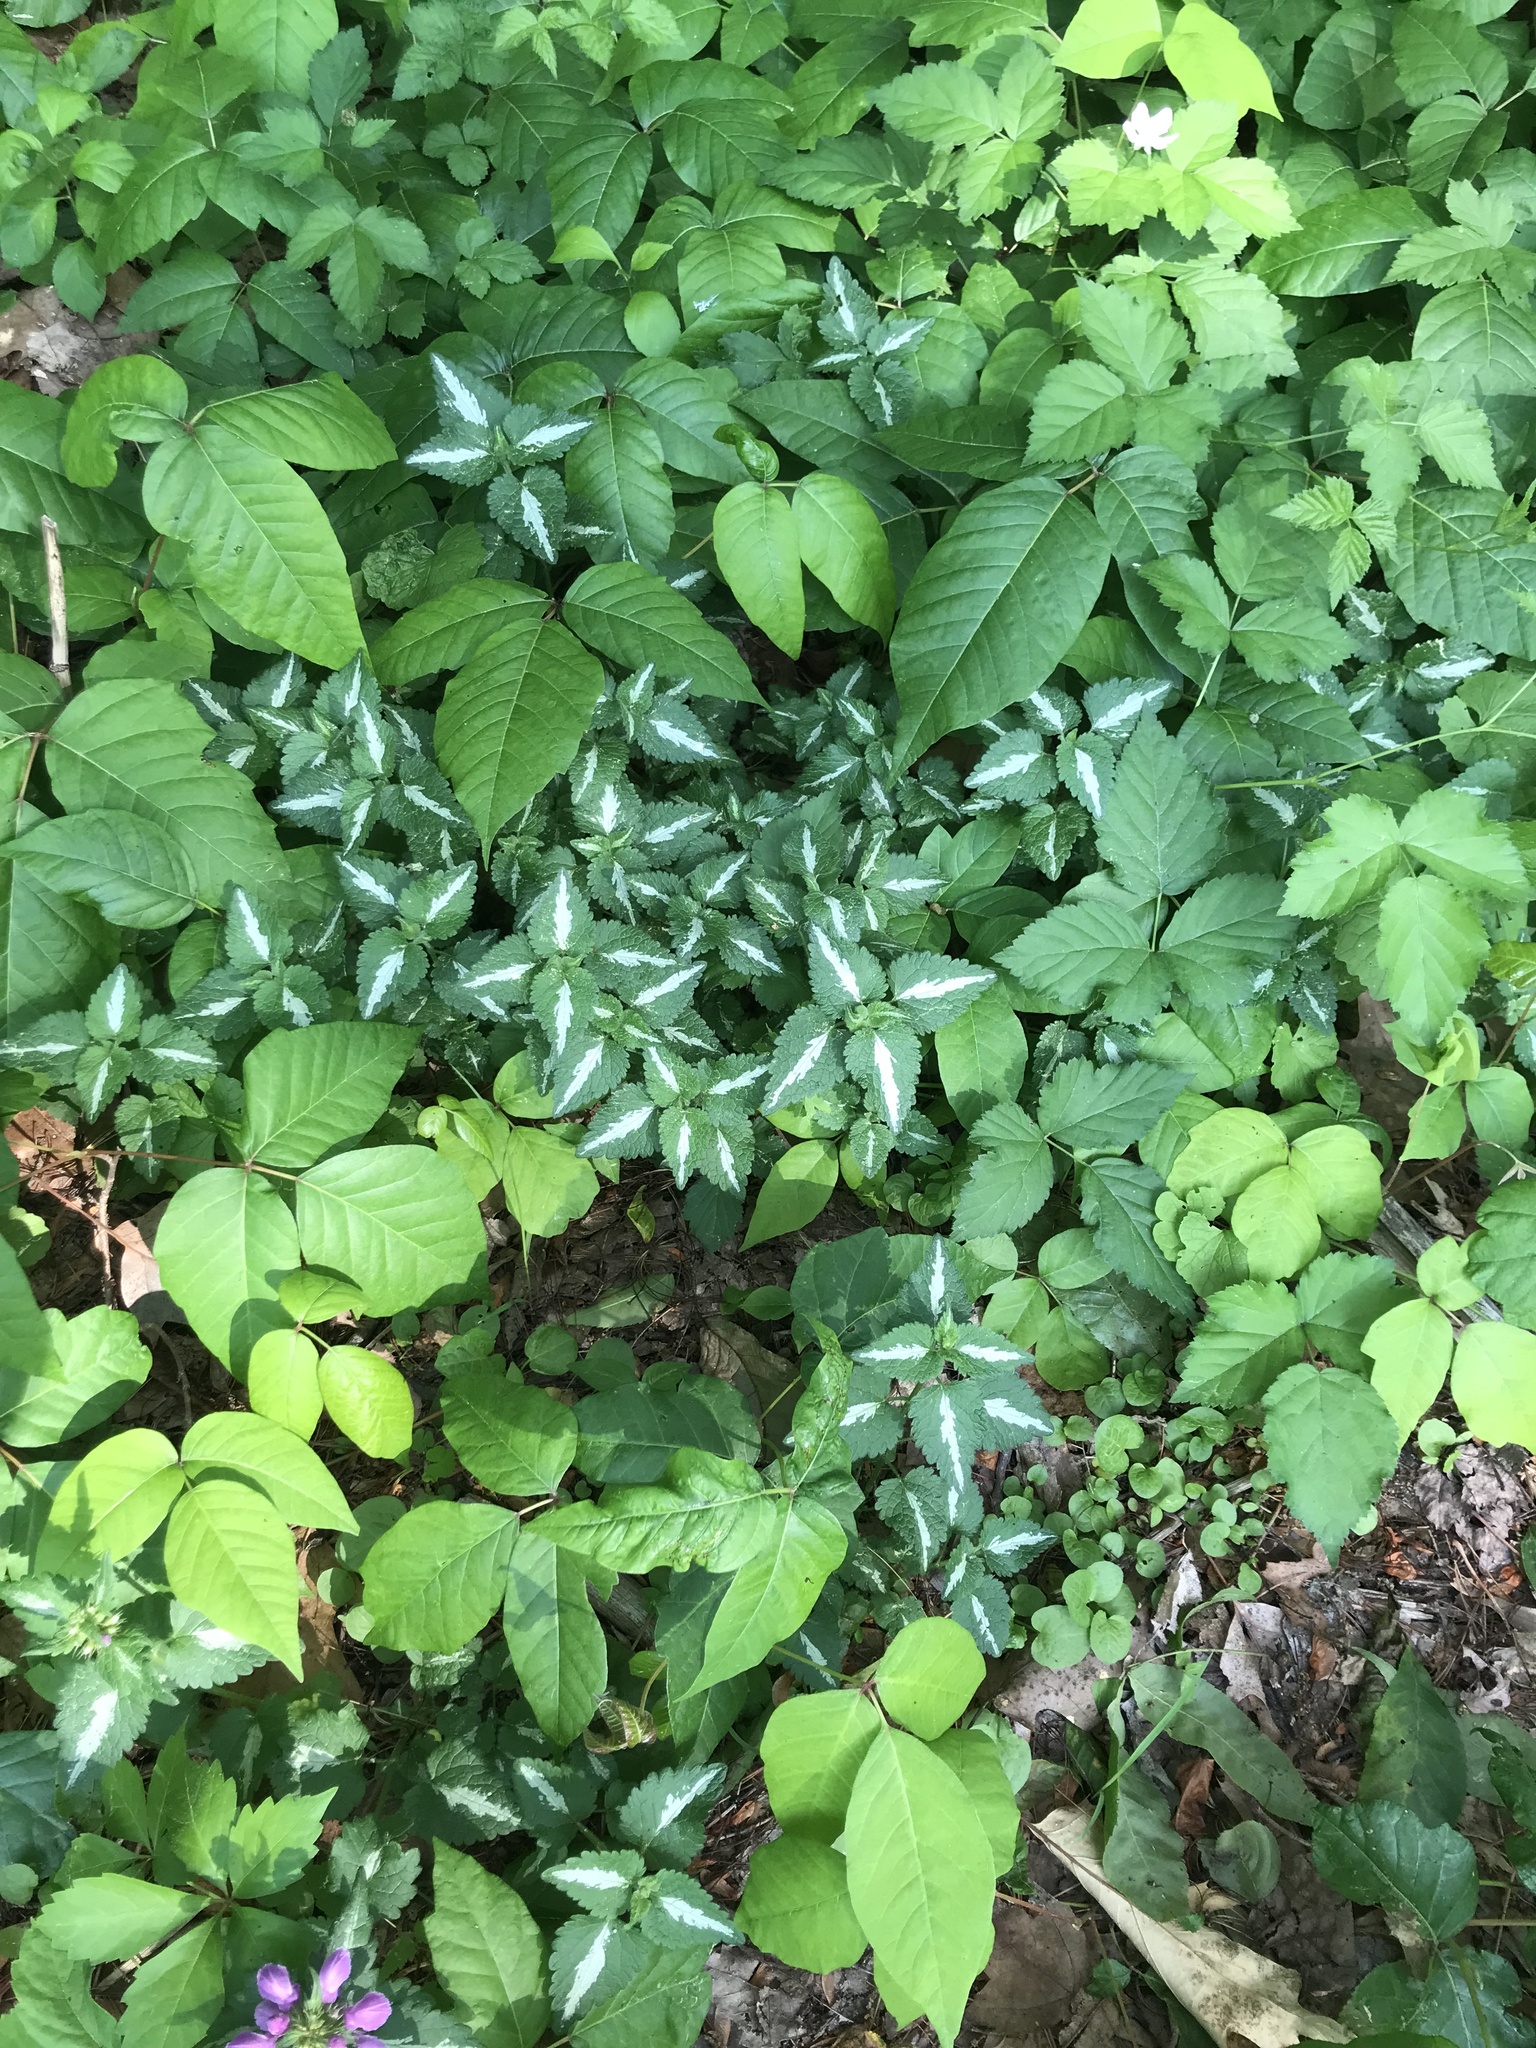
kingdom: Plantae
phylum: Tracheophyta
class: Magnoliopsida
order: Lamiales
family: Lamiaceae
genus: Lamium
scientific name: Lamium maculatum
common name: Spotted dead-nettle
